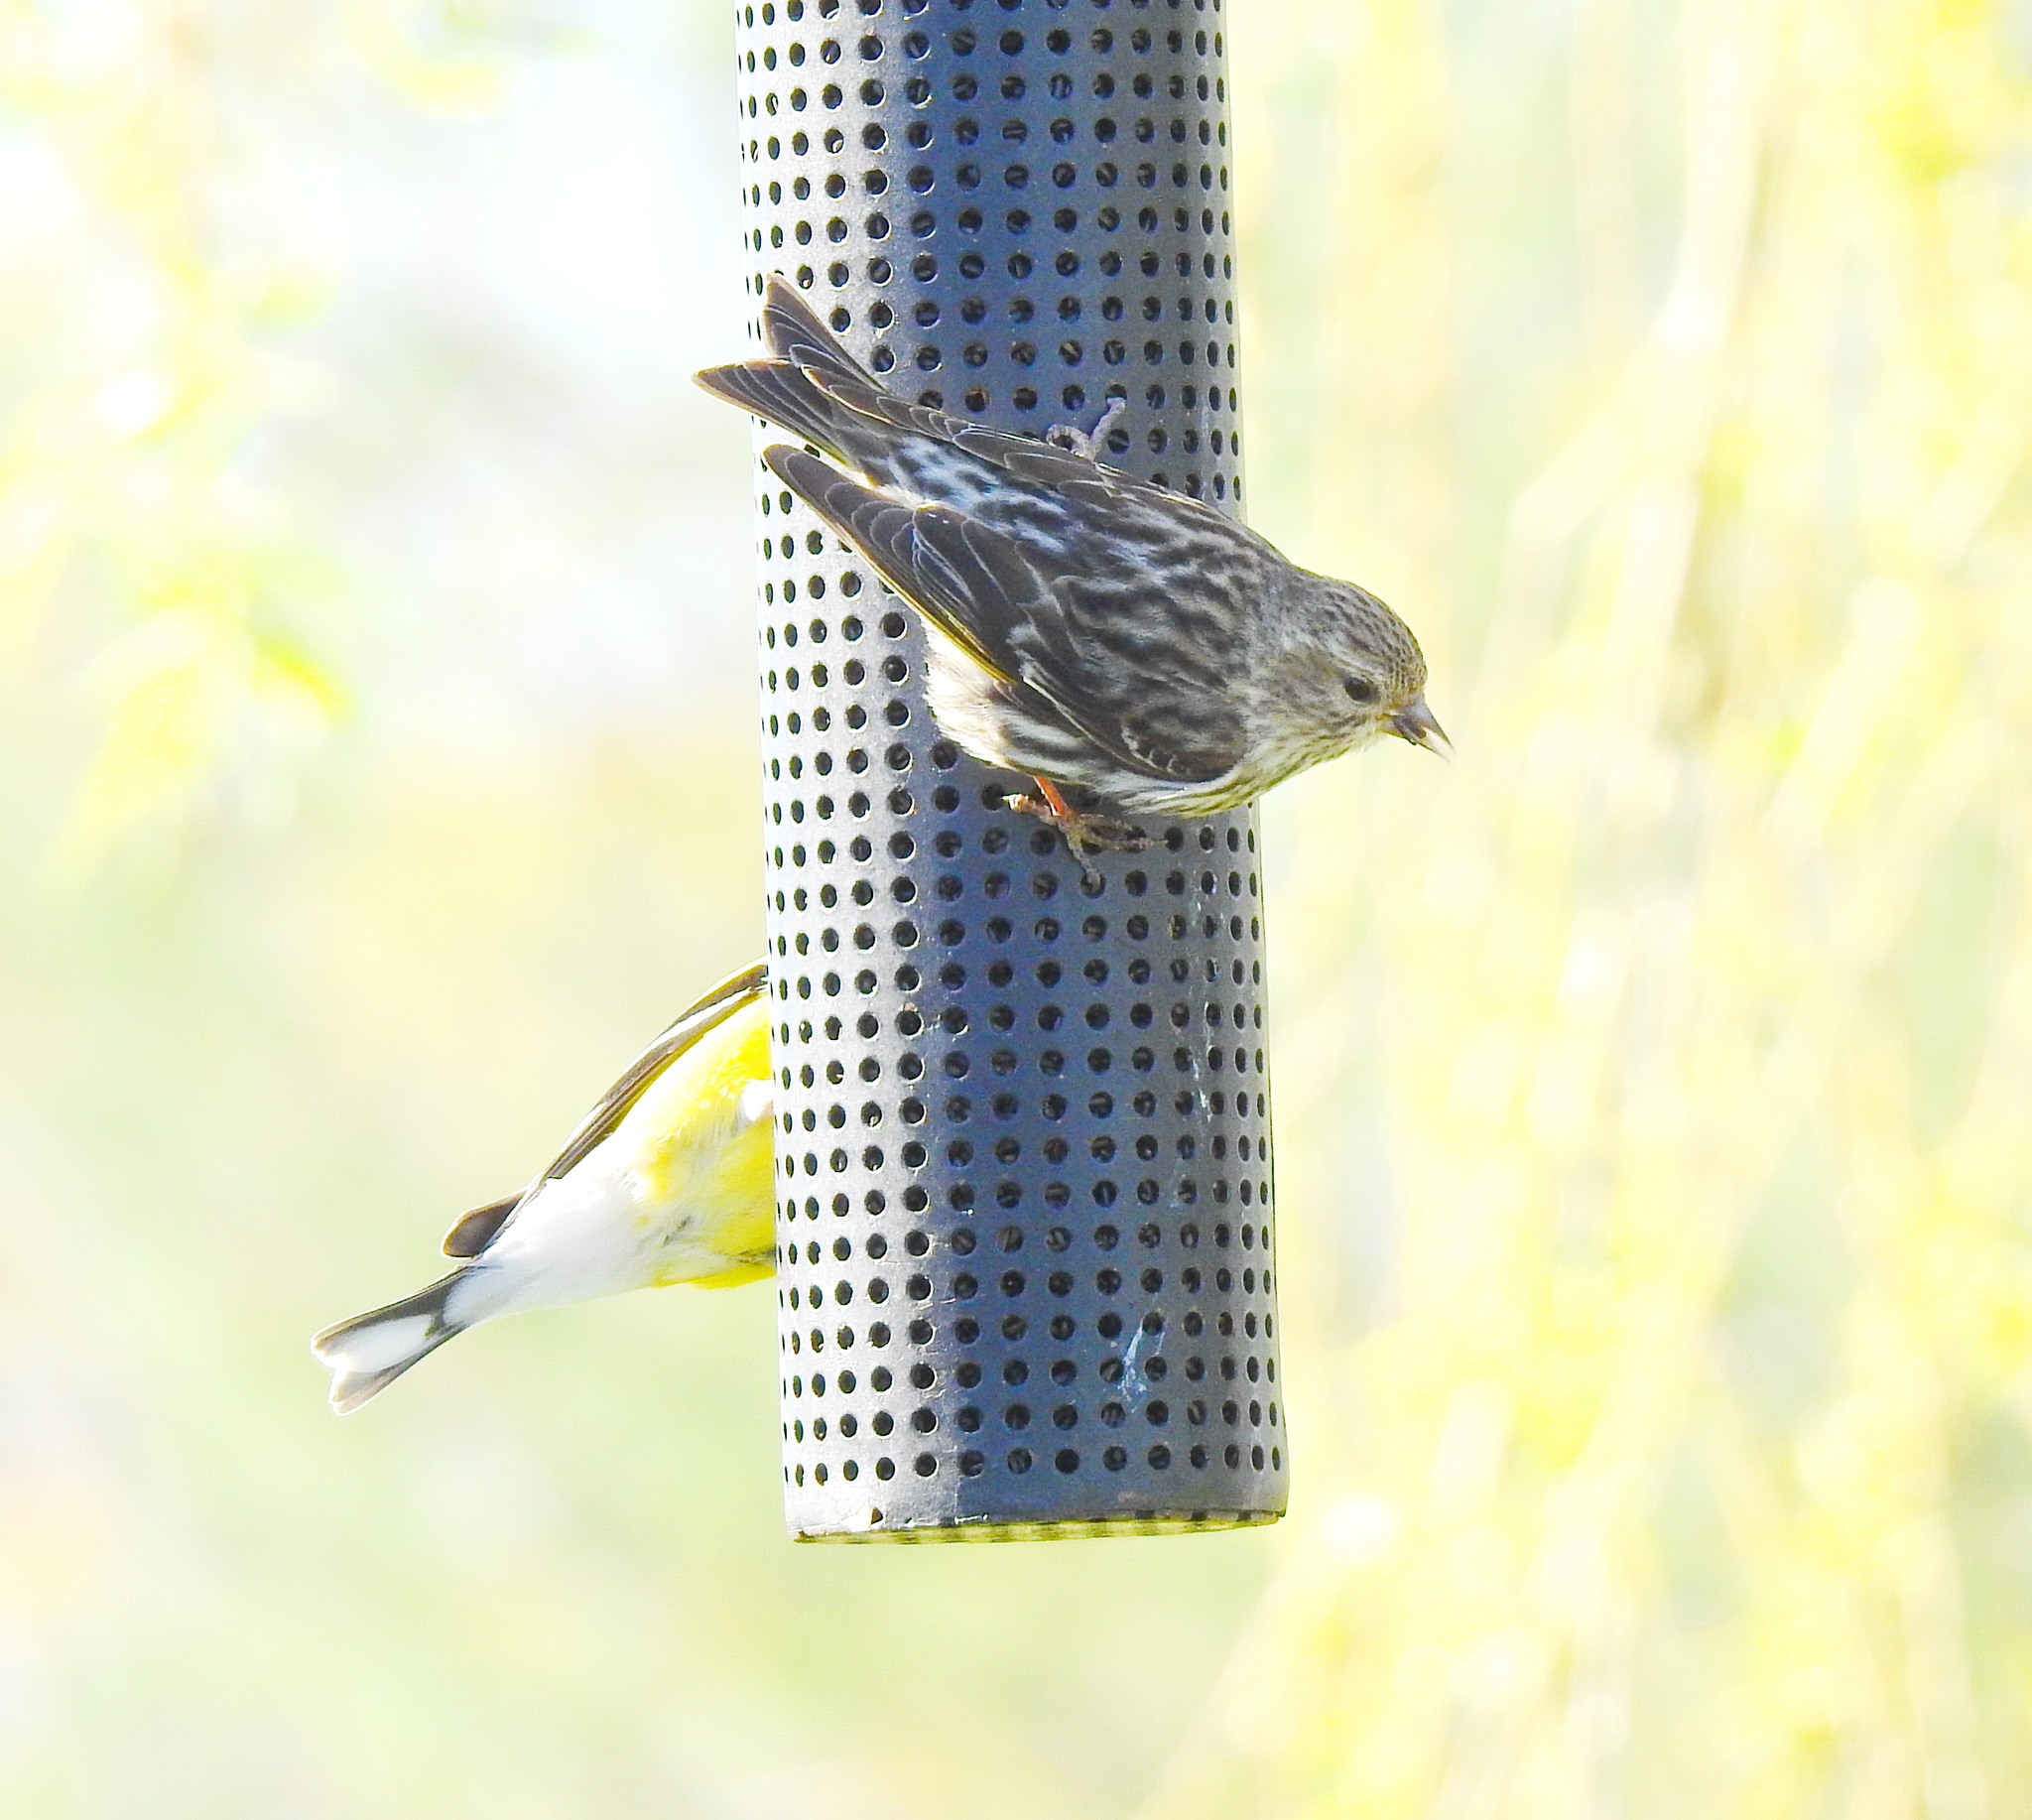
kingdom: Animalia
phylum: Chordata
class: Aves
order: Passeriformes
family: Fringillidae
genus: Spinus
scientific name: Spinus pinus
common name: Pine siskin
